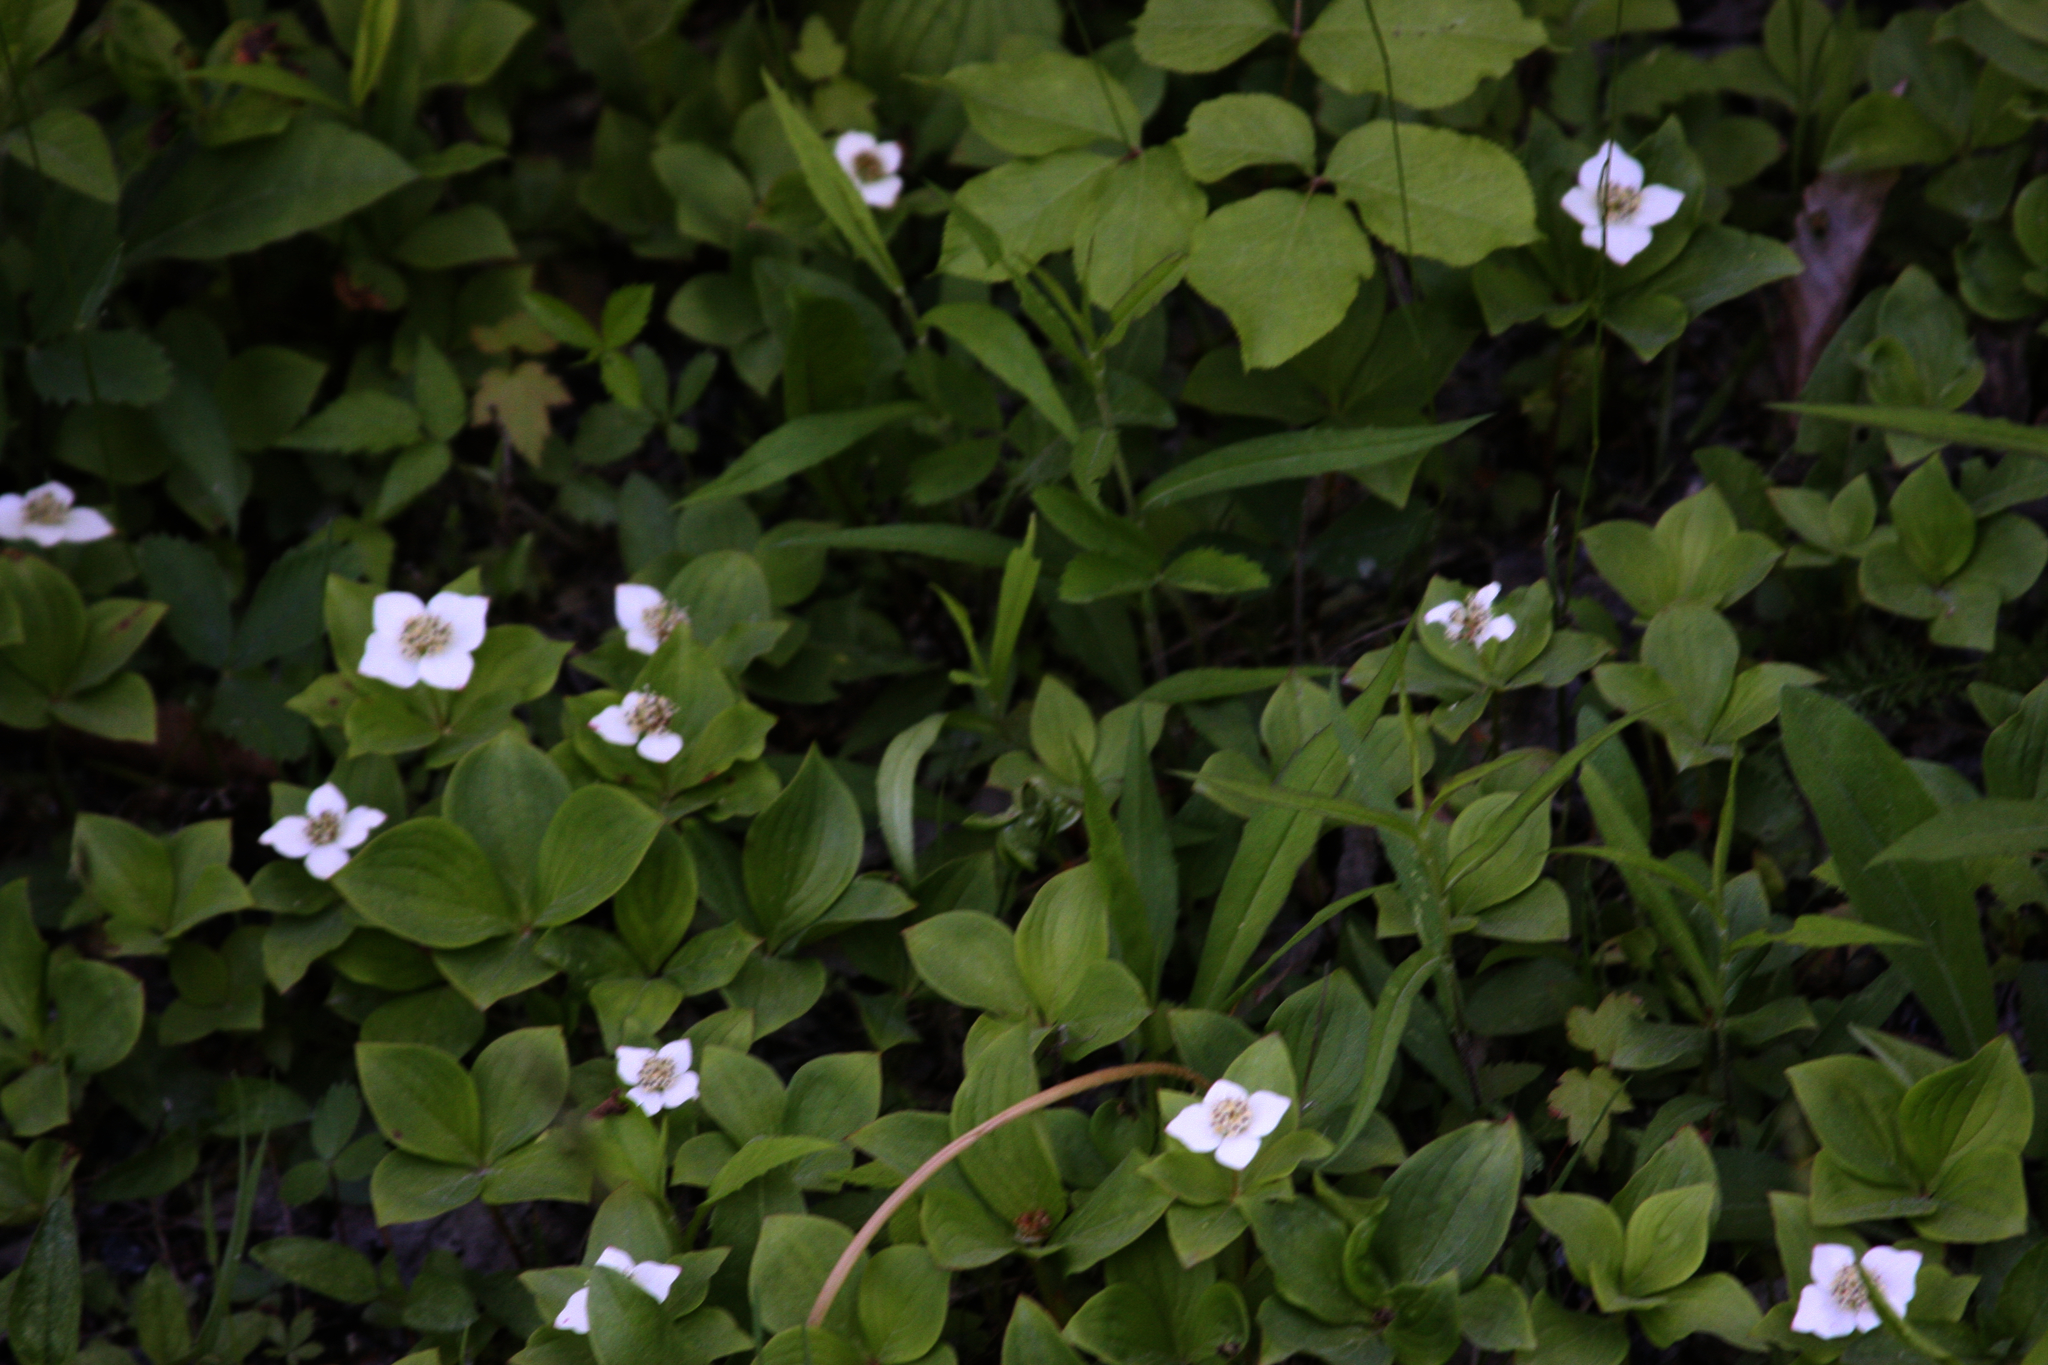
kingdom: Plantae
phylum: Tracheophyta
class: Magnoliopsida
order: Cornales
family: Cornaceae
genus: Cornus
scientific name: Cornus canadensis
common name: Creeping dogwood
